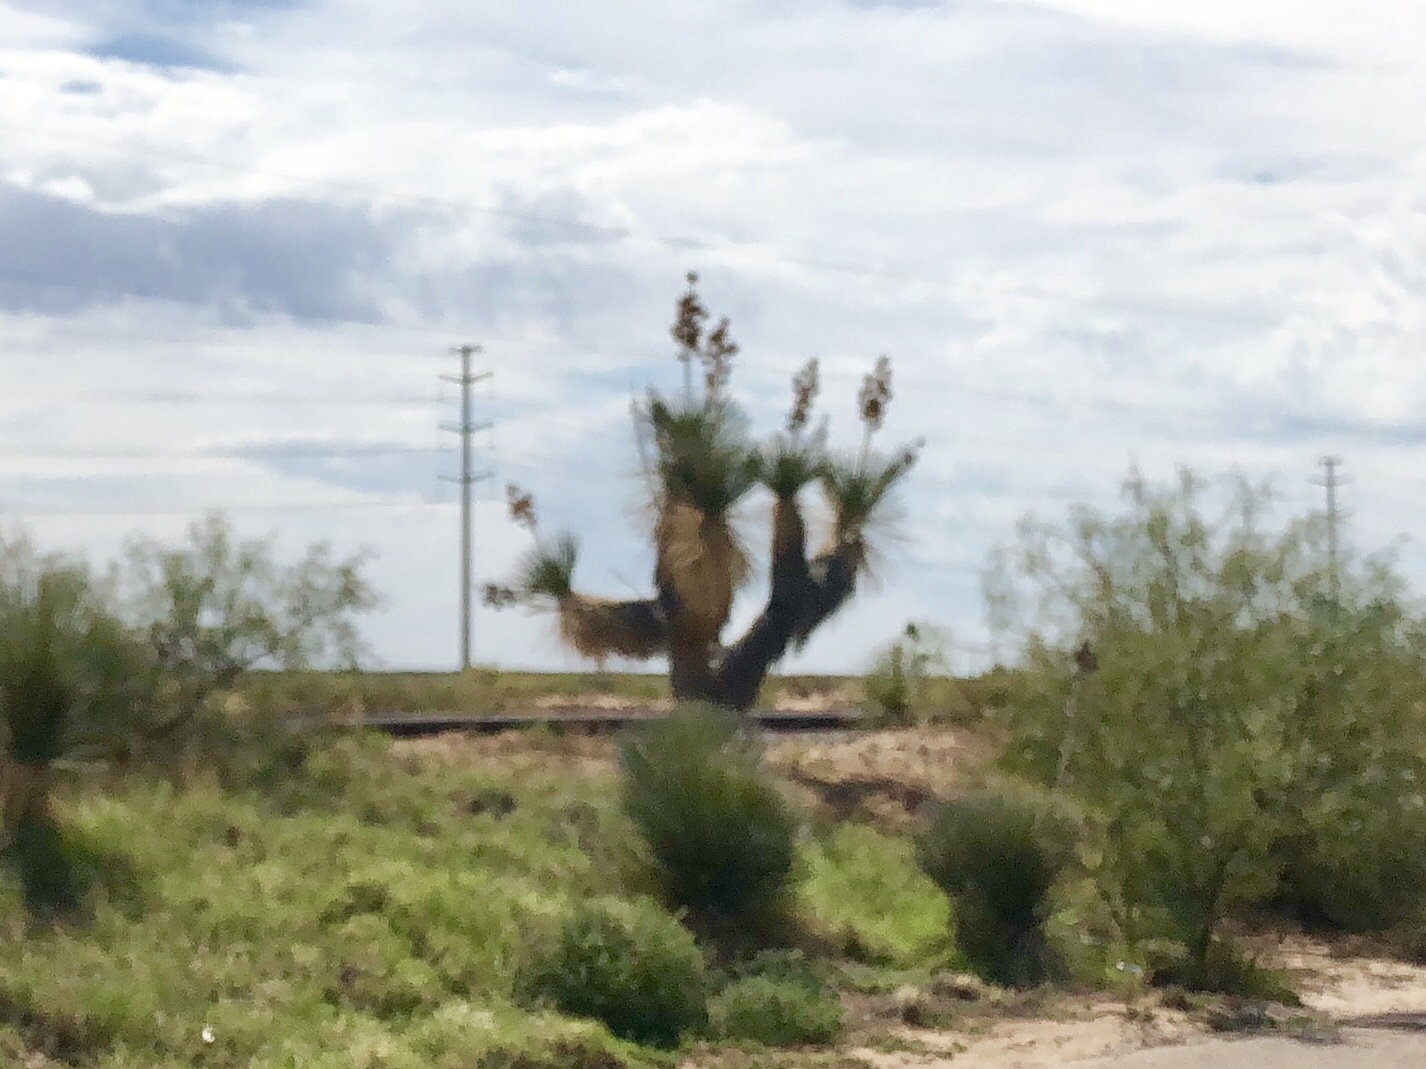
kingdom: Plantae
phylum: Tracheophyta
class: Liliopsida
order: Asparagales
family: Asparagaceae
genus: Yucca
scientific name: Yucca elata
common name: Palmella
